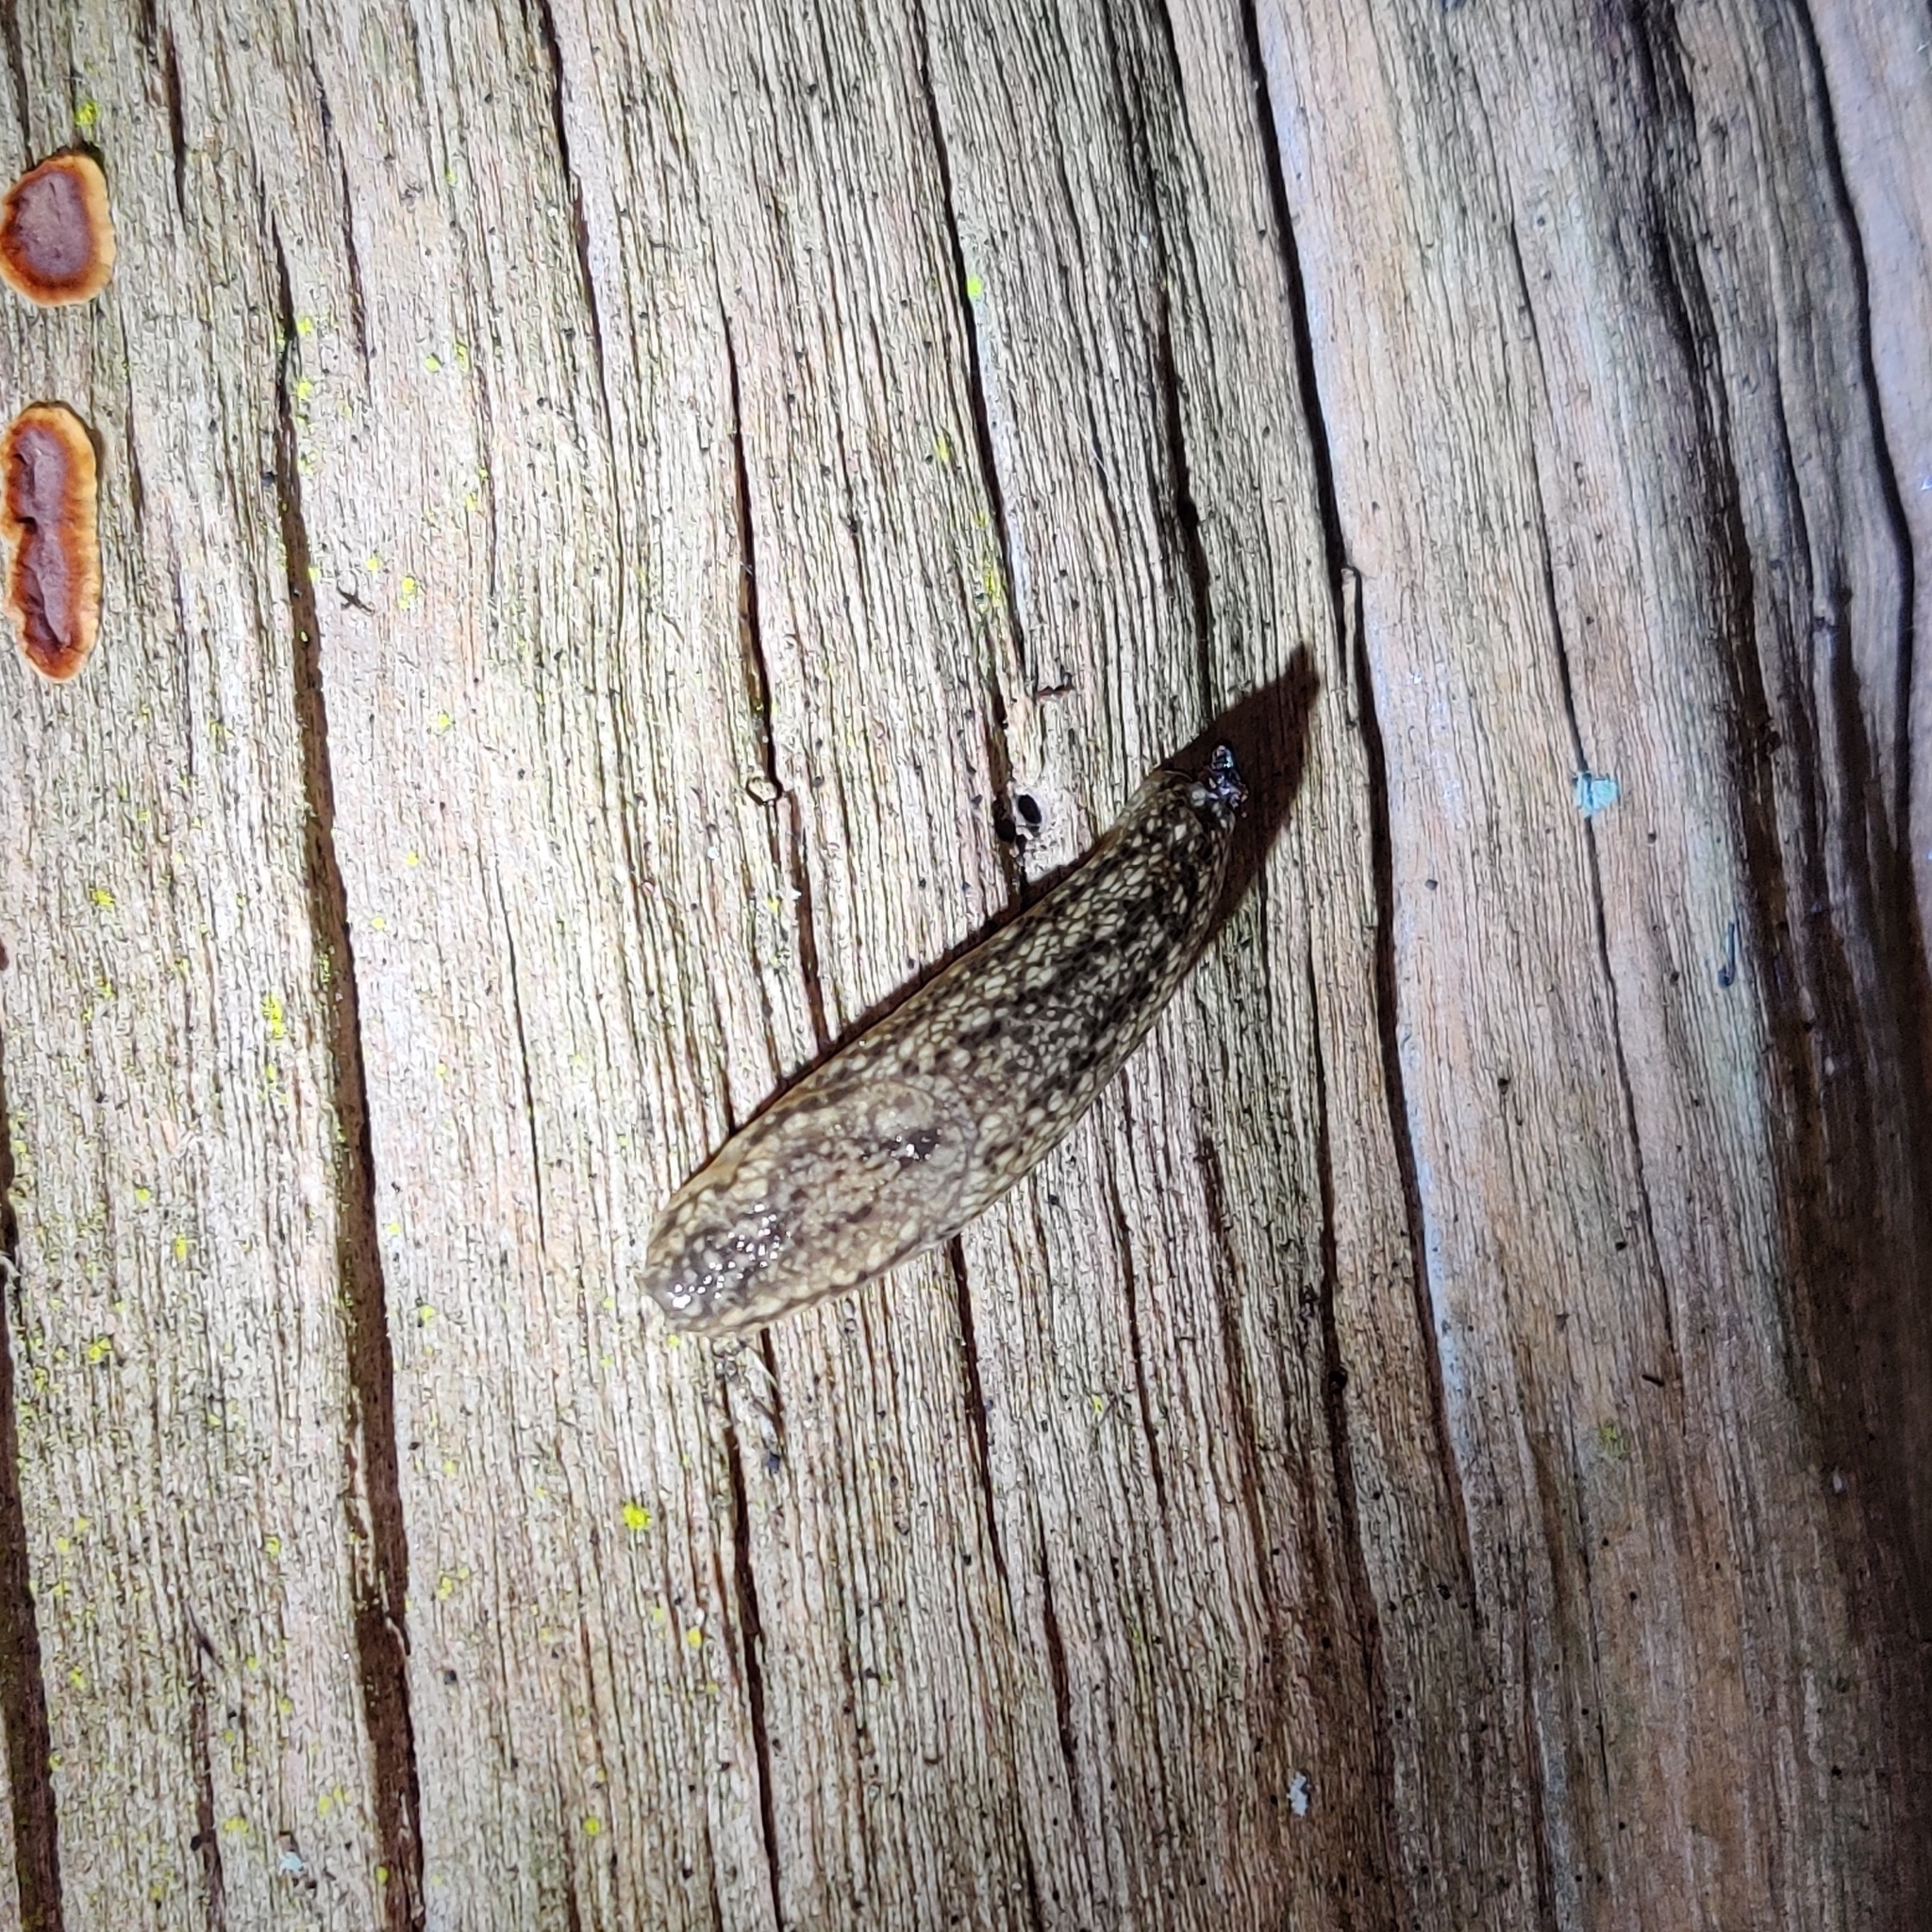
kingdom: Animalia
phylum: Mollusca
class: Gastropoda
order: Stylommatophora
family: Arionidae
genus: Geomalacus
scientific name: Geomalacus maculosus
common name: Kerry slug
